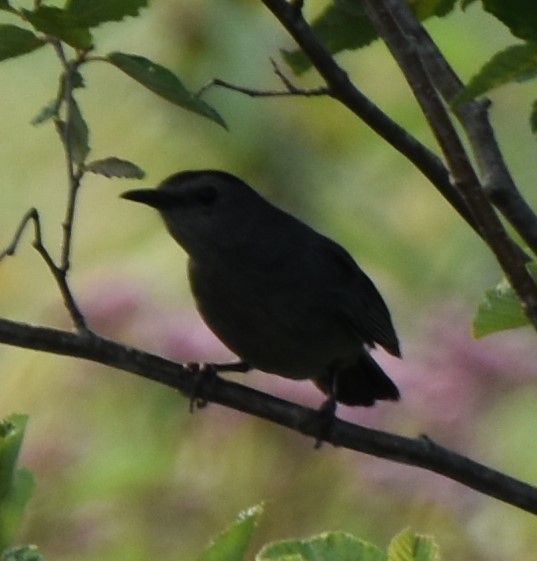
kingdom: Animalia
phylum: Chordata
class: Aves
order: Passeriformes
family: Mimidae
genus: Dumetella
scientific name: Dumetella carolinensis
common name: Gray catbird
